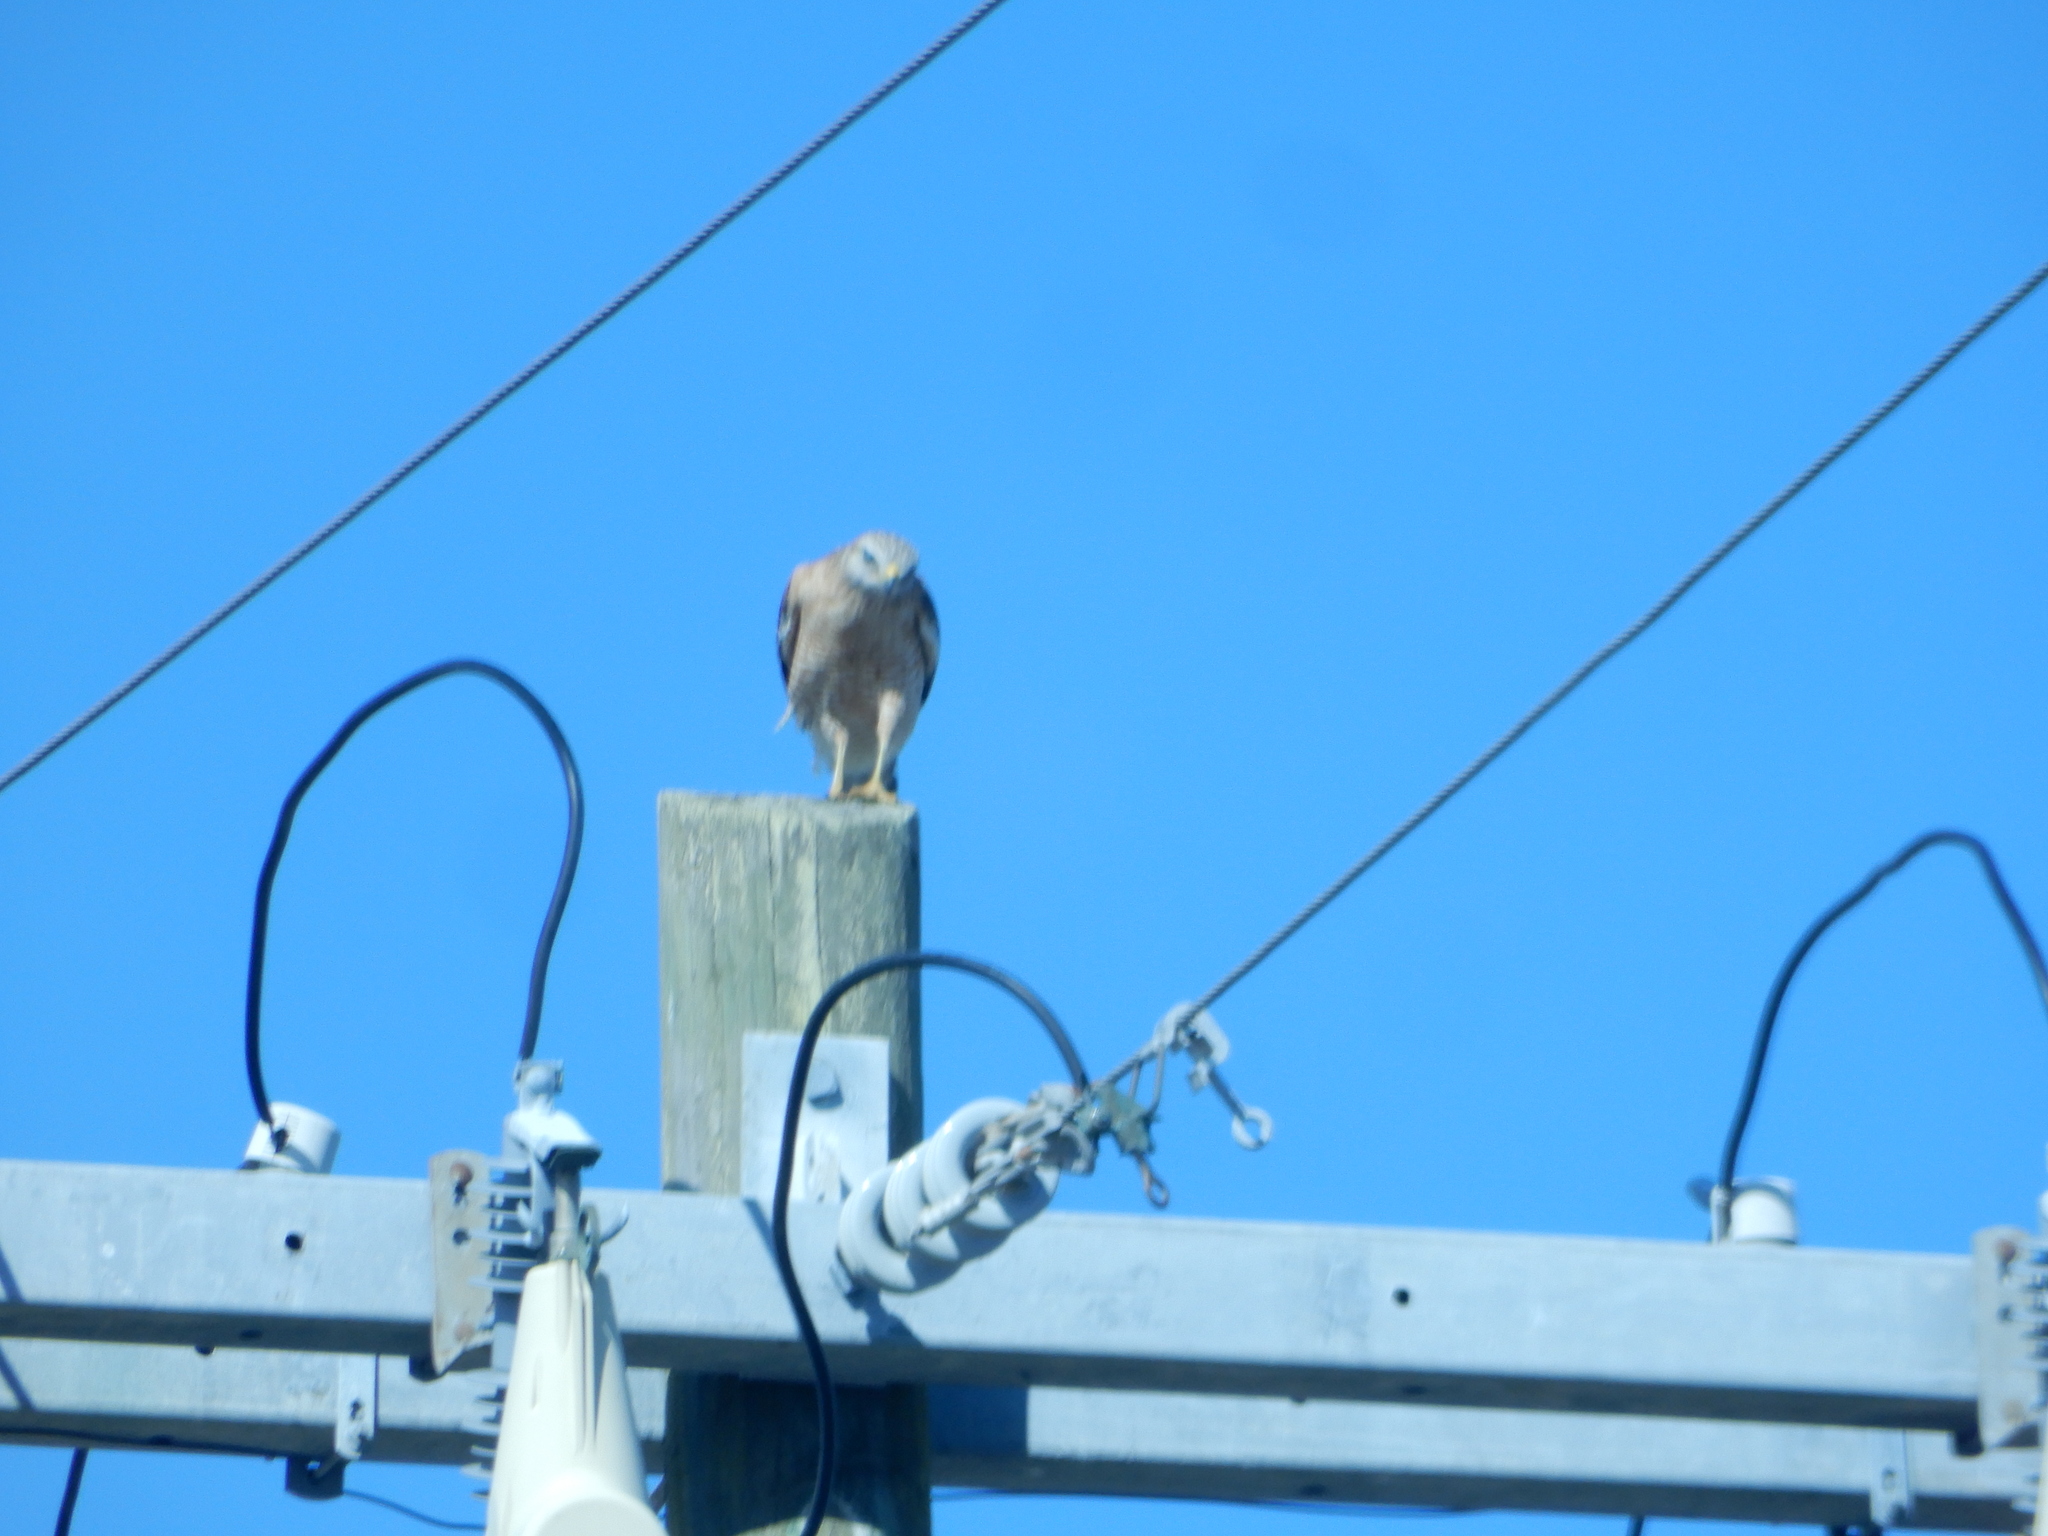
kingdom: Animalia
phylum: Chordata
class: Aves
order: Accipitriformes
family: Accipitridae
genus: Buteo
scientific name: Buteo lineatus
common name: Red-shouldered hawk
